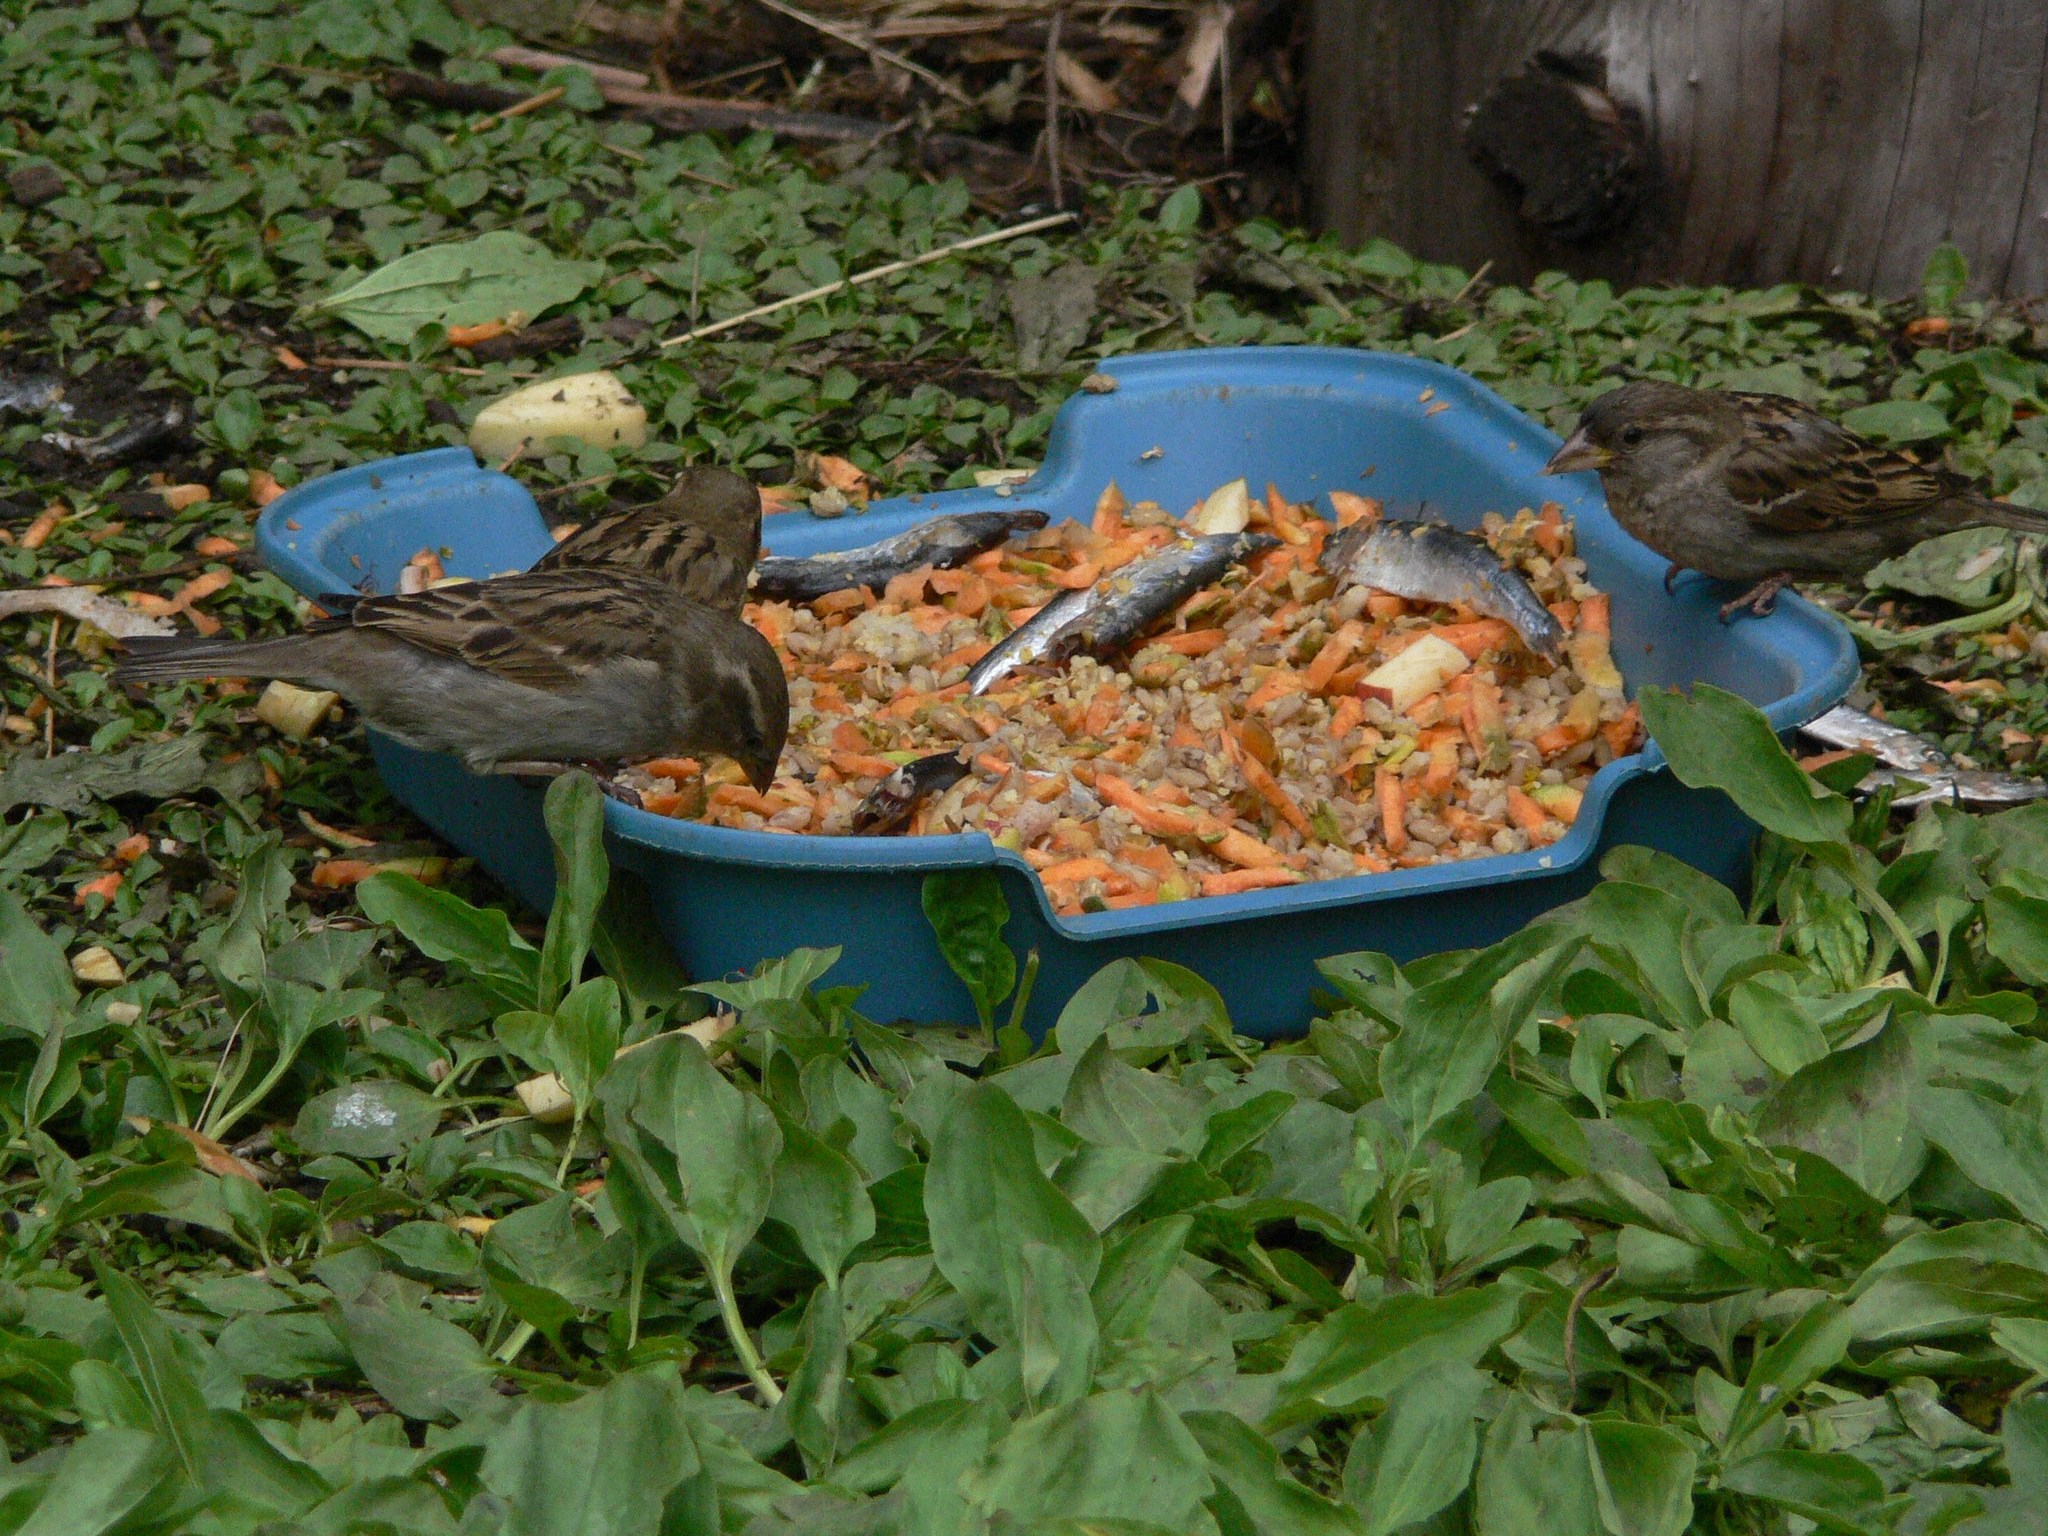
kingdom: Animalia
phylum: Chordata
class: Aves
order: Passeriformes
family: Passeridae
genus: Passer
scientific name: Passer domesticus
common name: House sparrow
